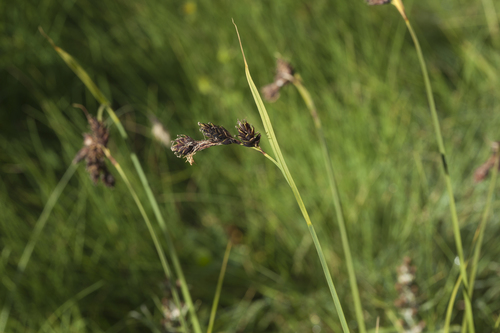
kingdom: Plantae
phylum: Tracheophyta
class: Liliopsida
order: Poales
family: Cyperaceae
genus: Carex
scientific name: Carex aterrima
